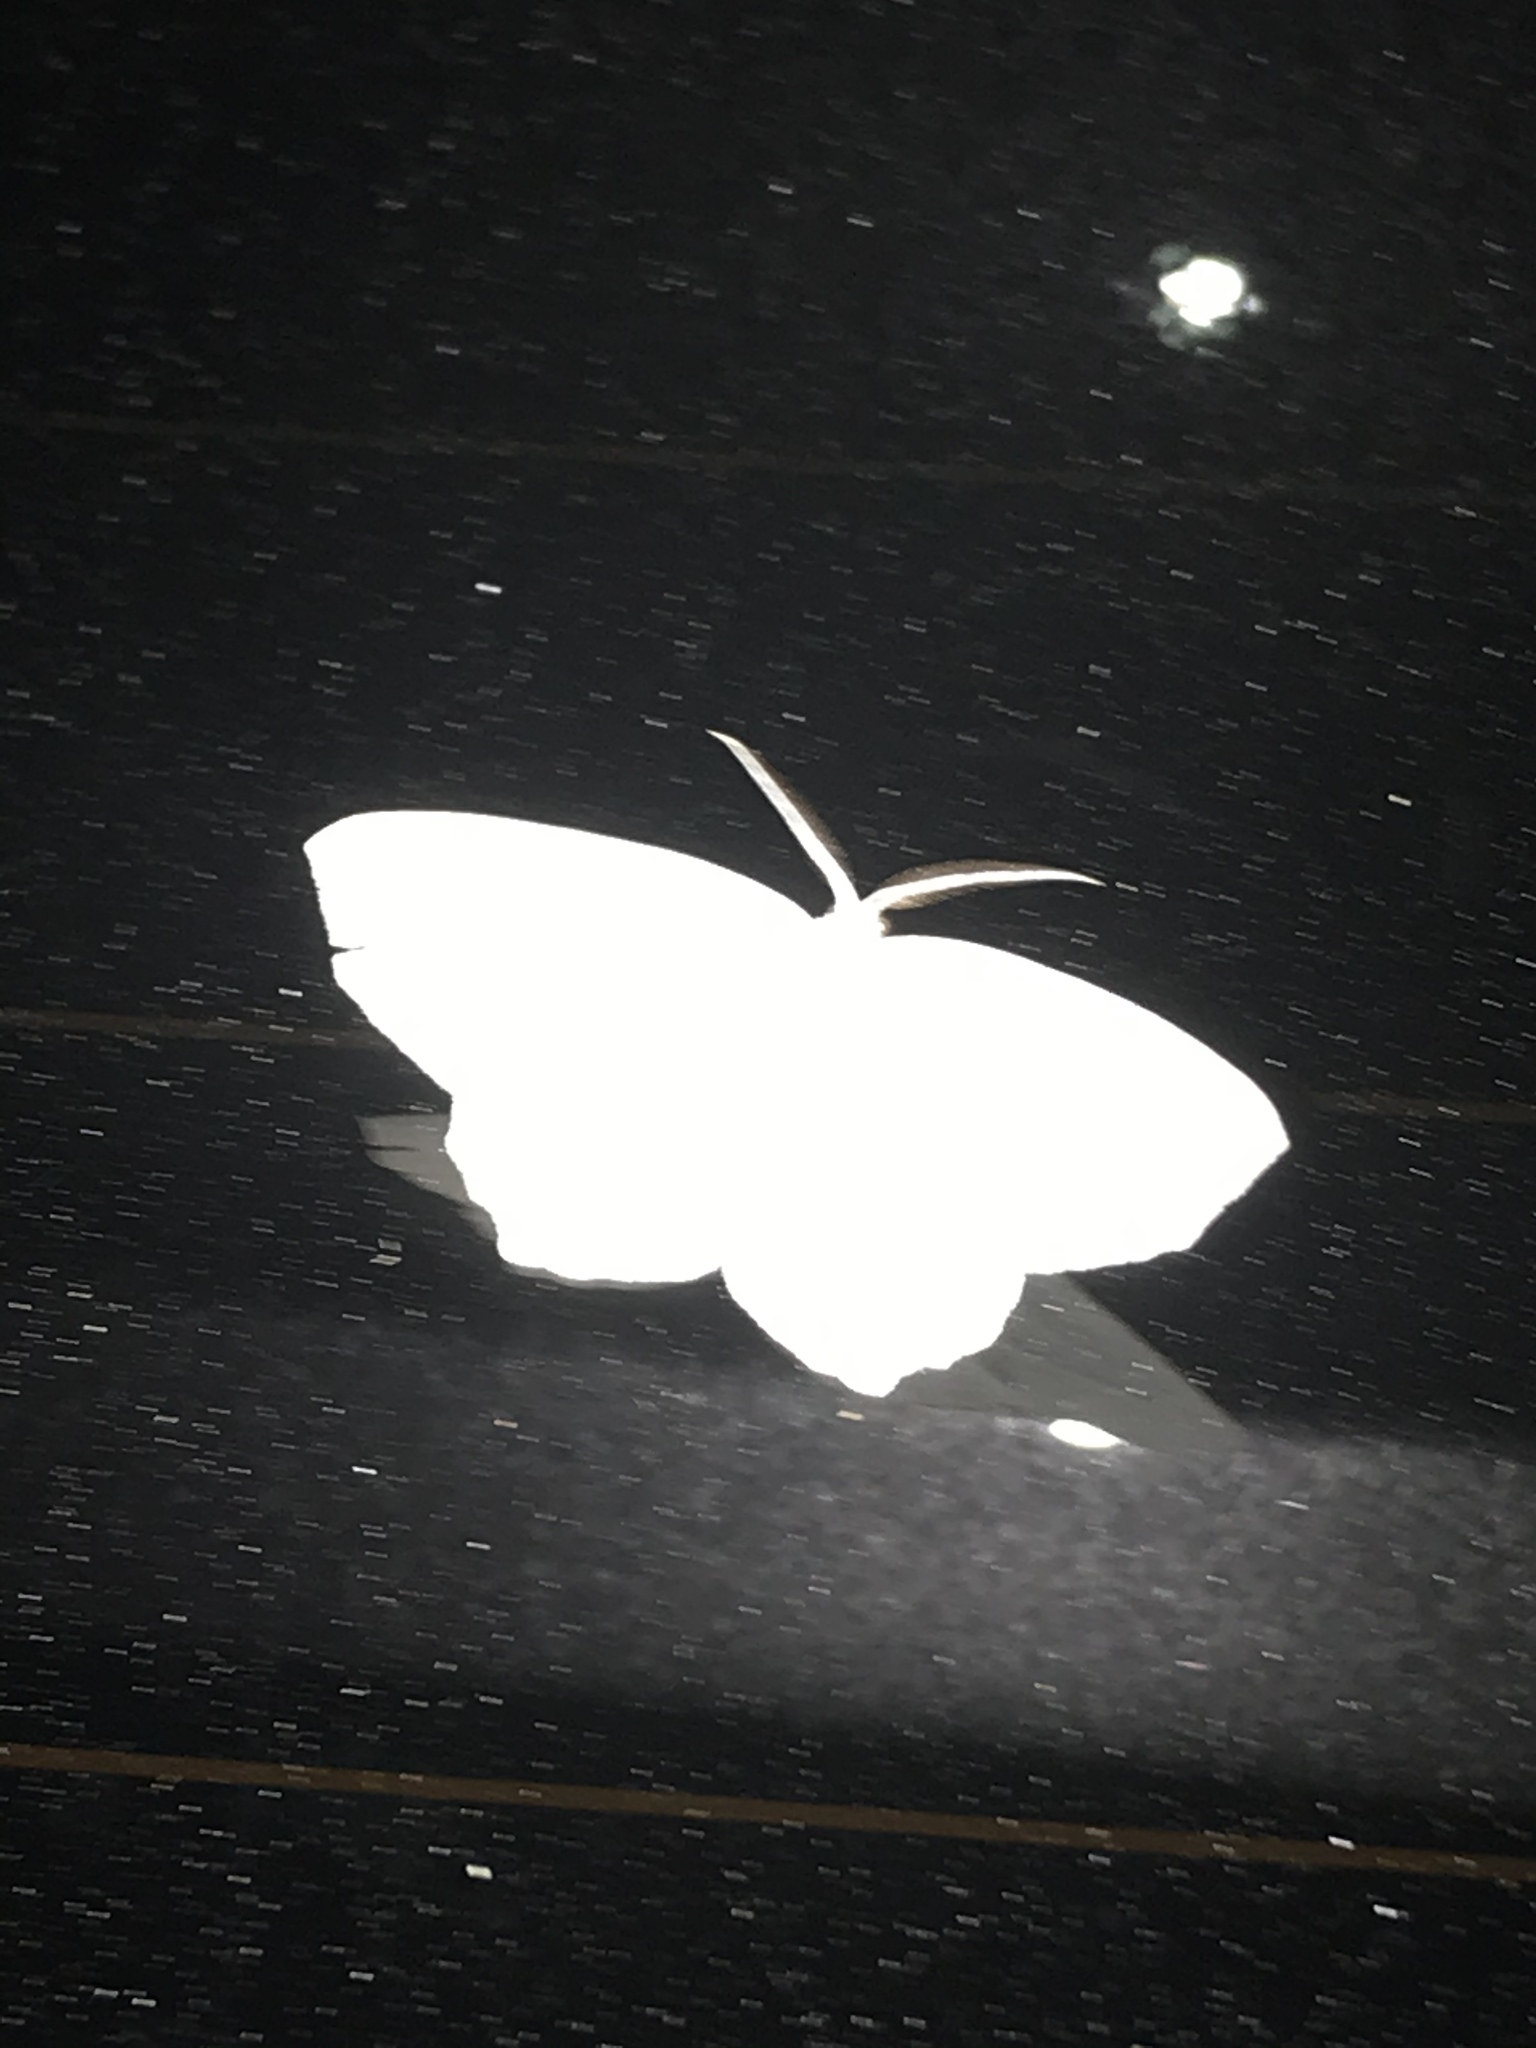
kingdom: Animalia
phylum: Arthropoda
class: Insecta
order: Lepidoptera
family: Geometridae
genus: Campaea
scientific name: Campaea perlata
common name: Fringed looper
